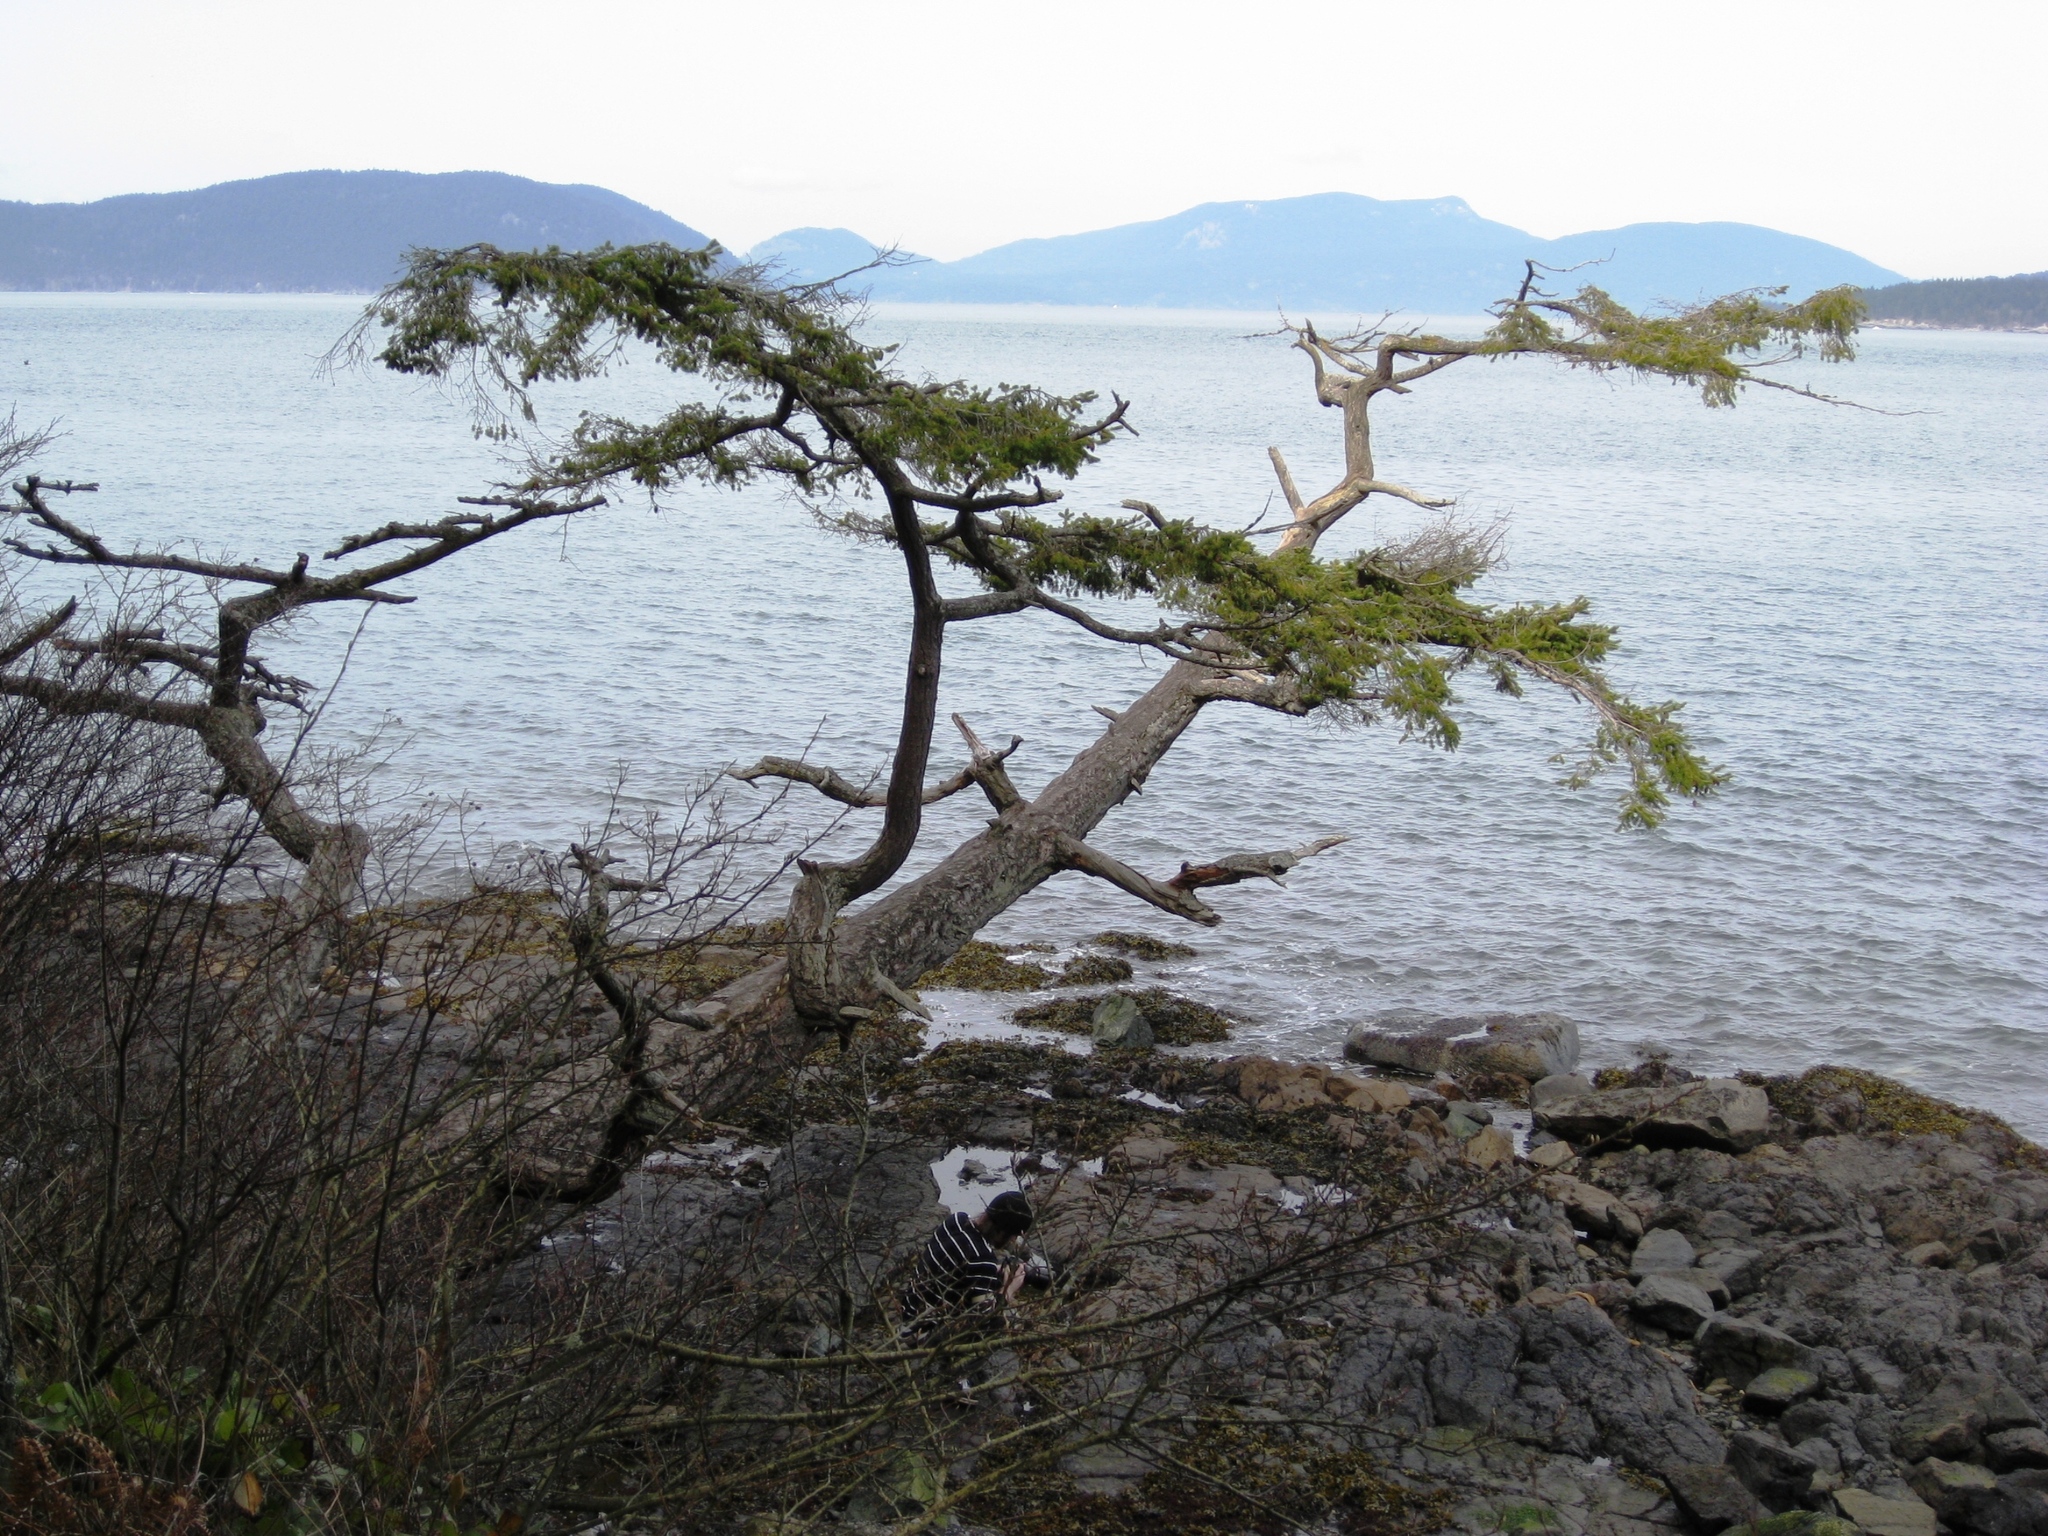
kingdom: Plantae
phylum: Tracheophyta
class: Pinopsida
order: Pinales
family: Pinaceae
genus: Pseudotsuga
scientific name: Pseudotsuga menziesii
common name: Douglas fir
